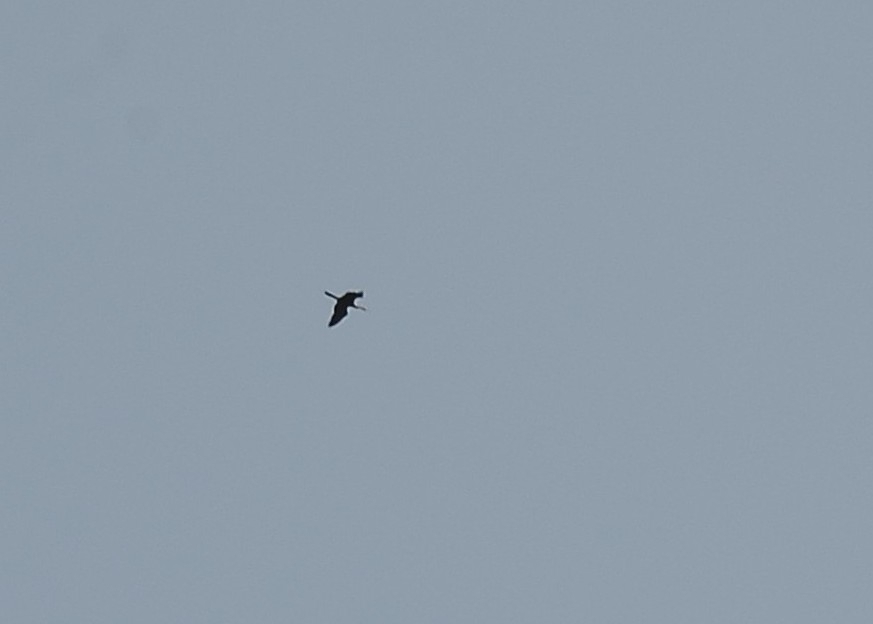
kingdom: Animalia
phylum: Chordata
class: Aves
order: Suliformes
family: Anhingidae
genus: Anhinga
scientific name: Anhinga melanogaster
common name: Oriental darter
